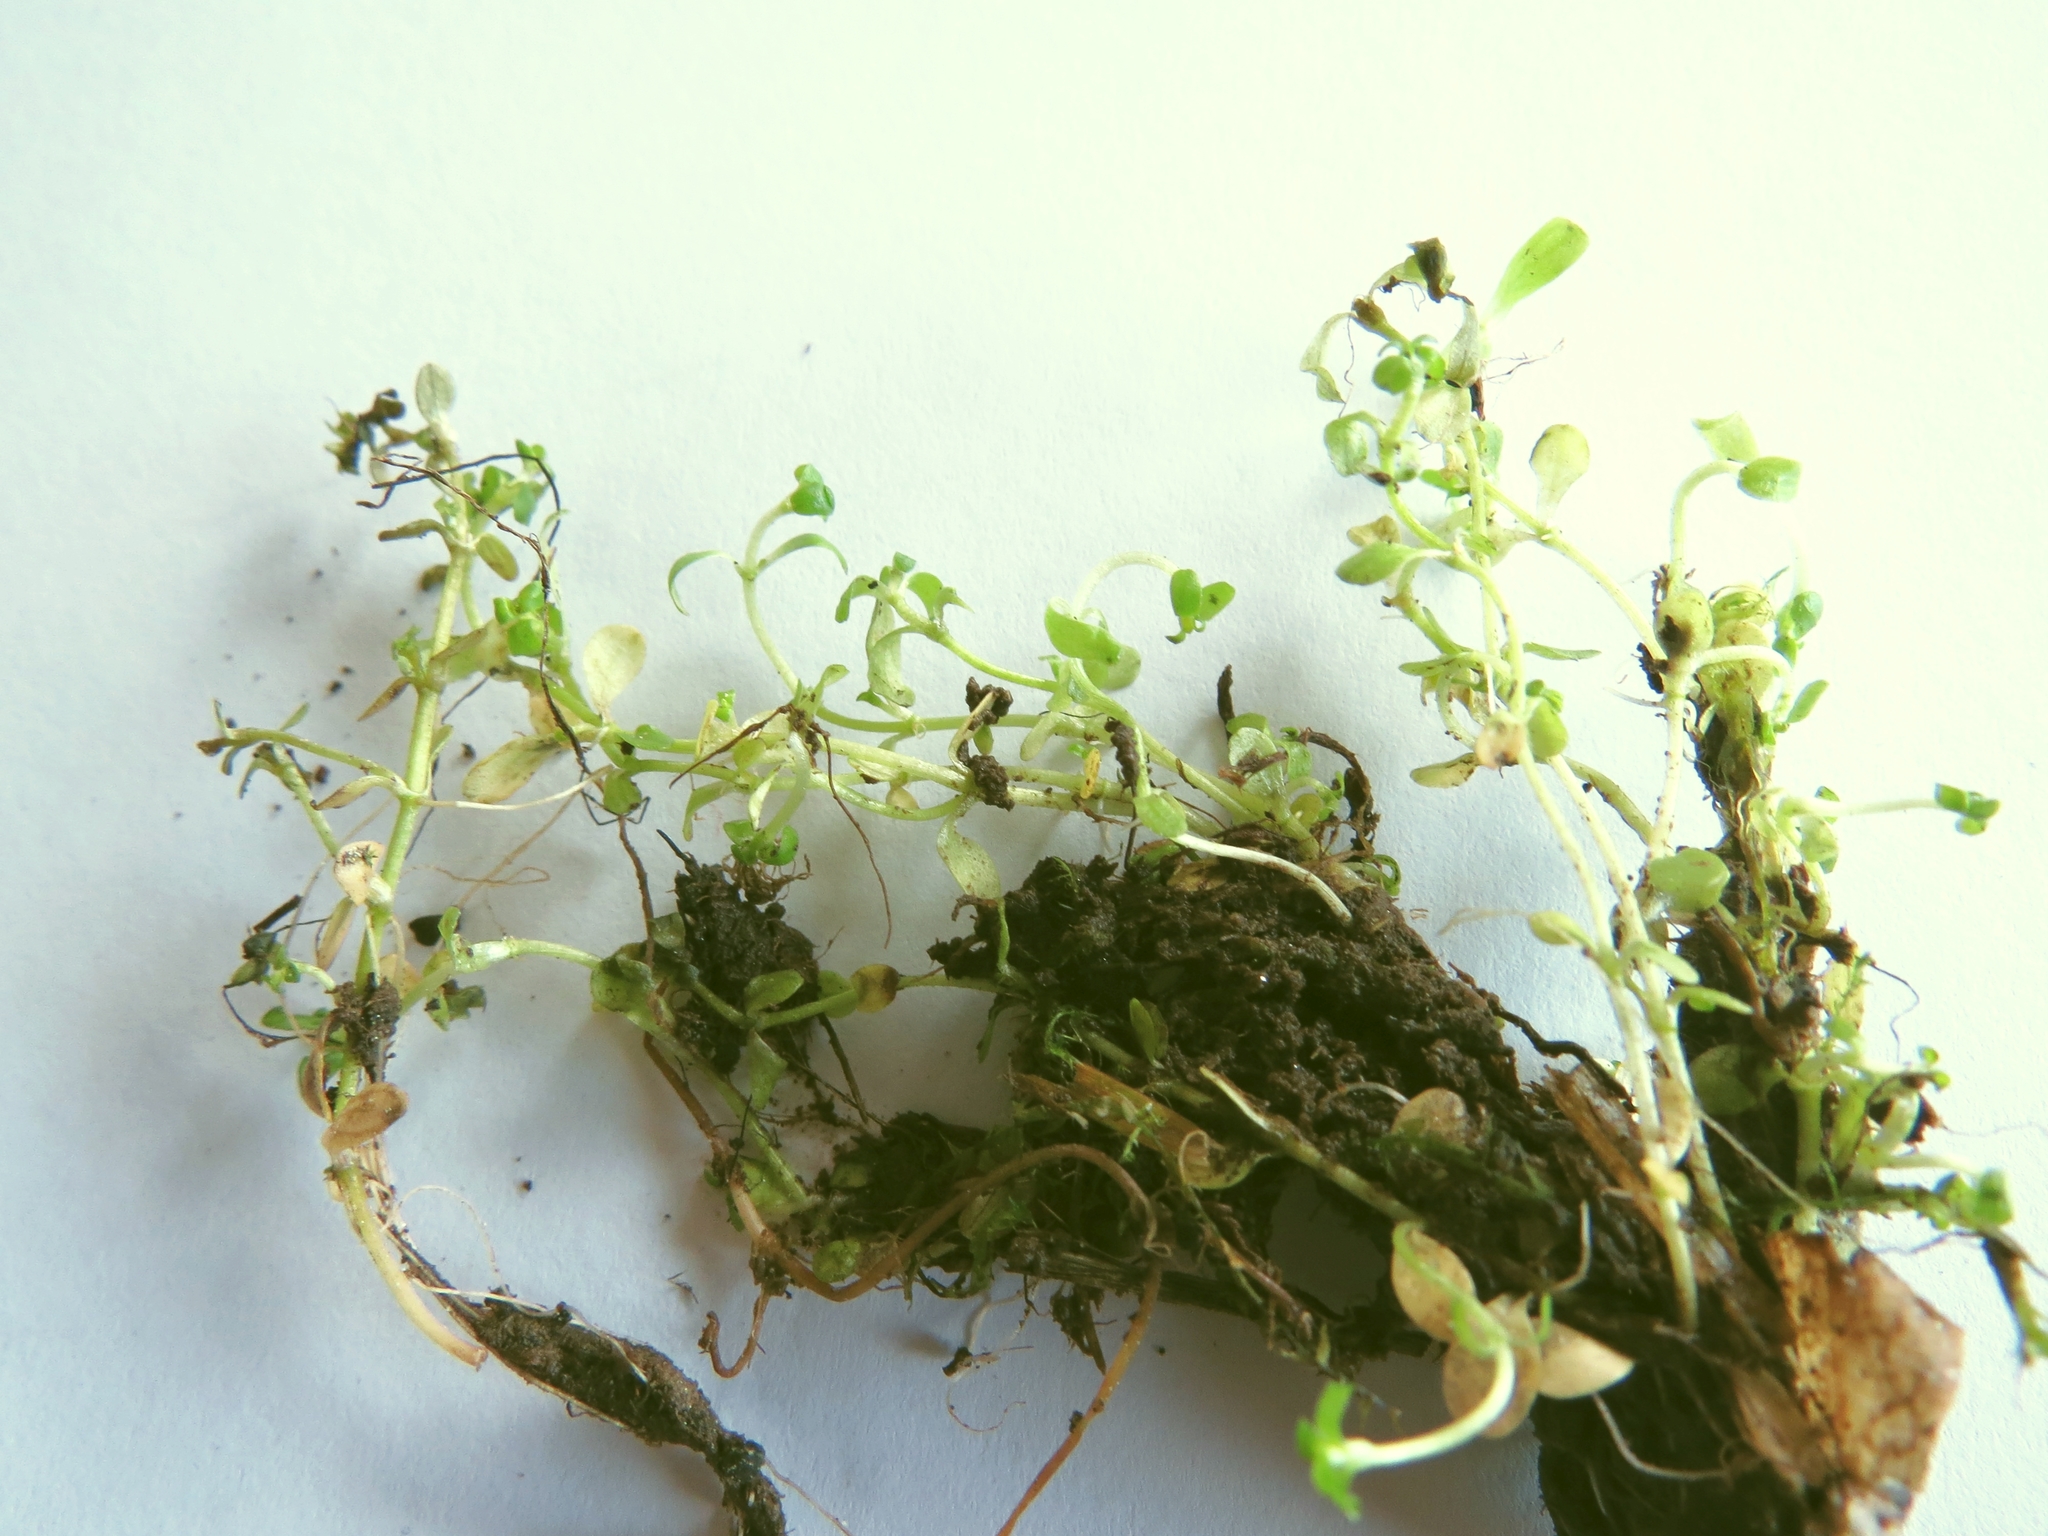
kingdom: Plantae
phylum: Tracheophyta
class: Magnoliopsida
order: Lamiales
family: Plantaginaceae
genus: Callitriche
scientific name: Callitriche stagnalis
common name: Common water-starwort
